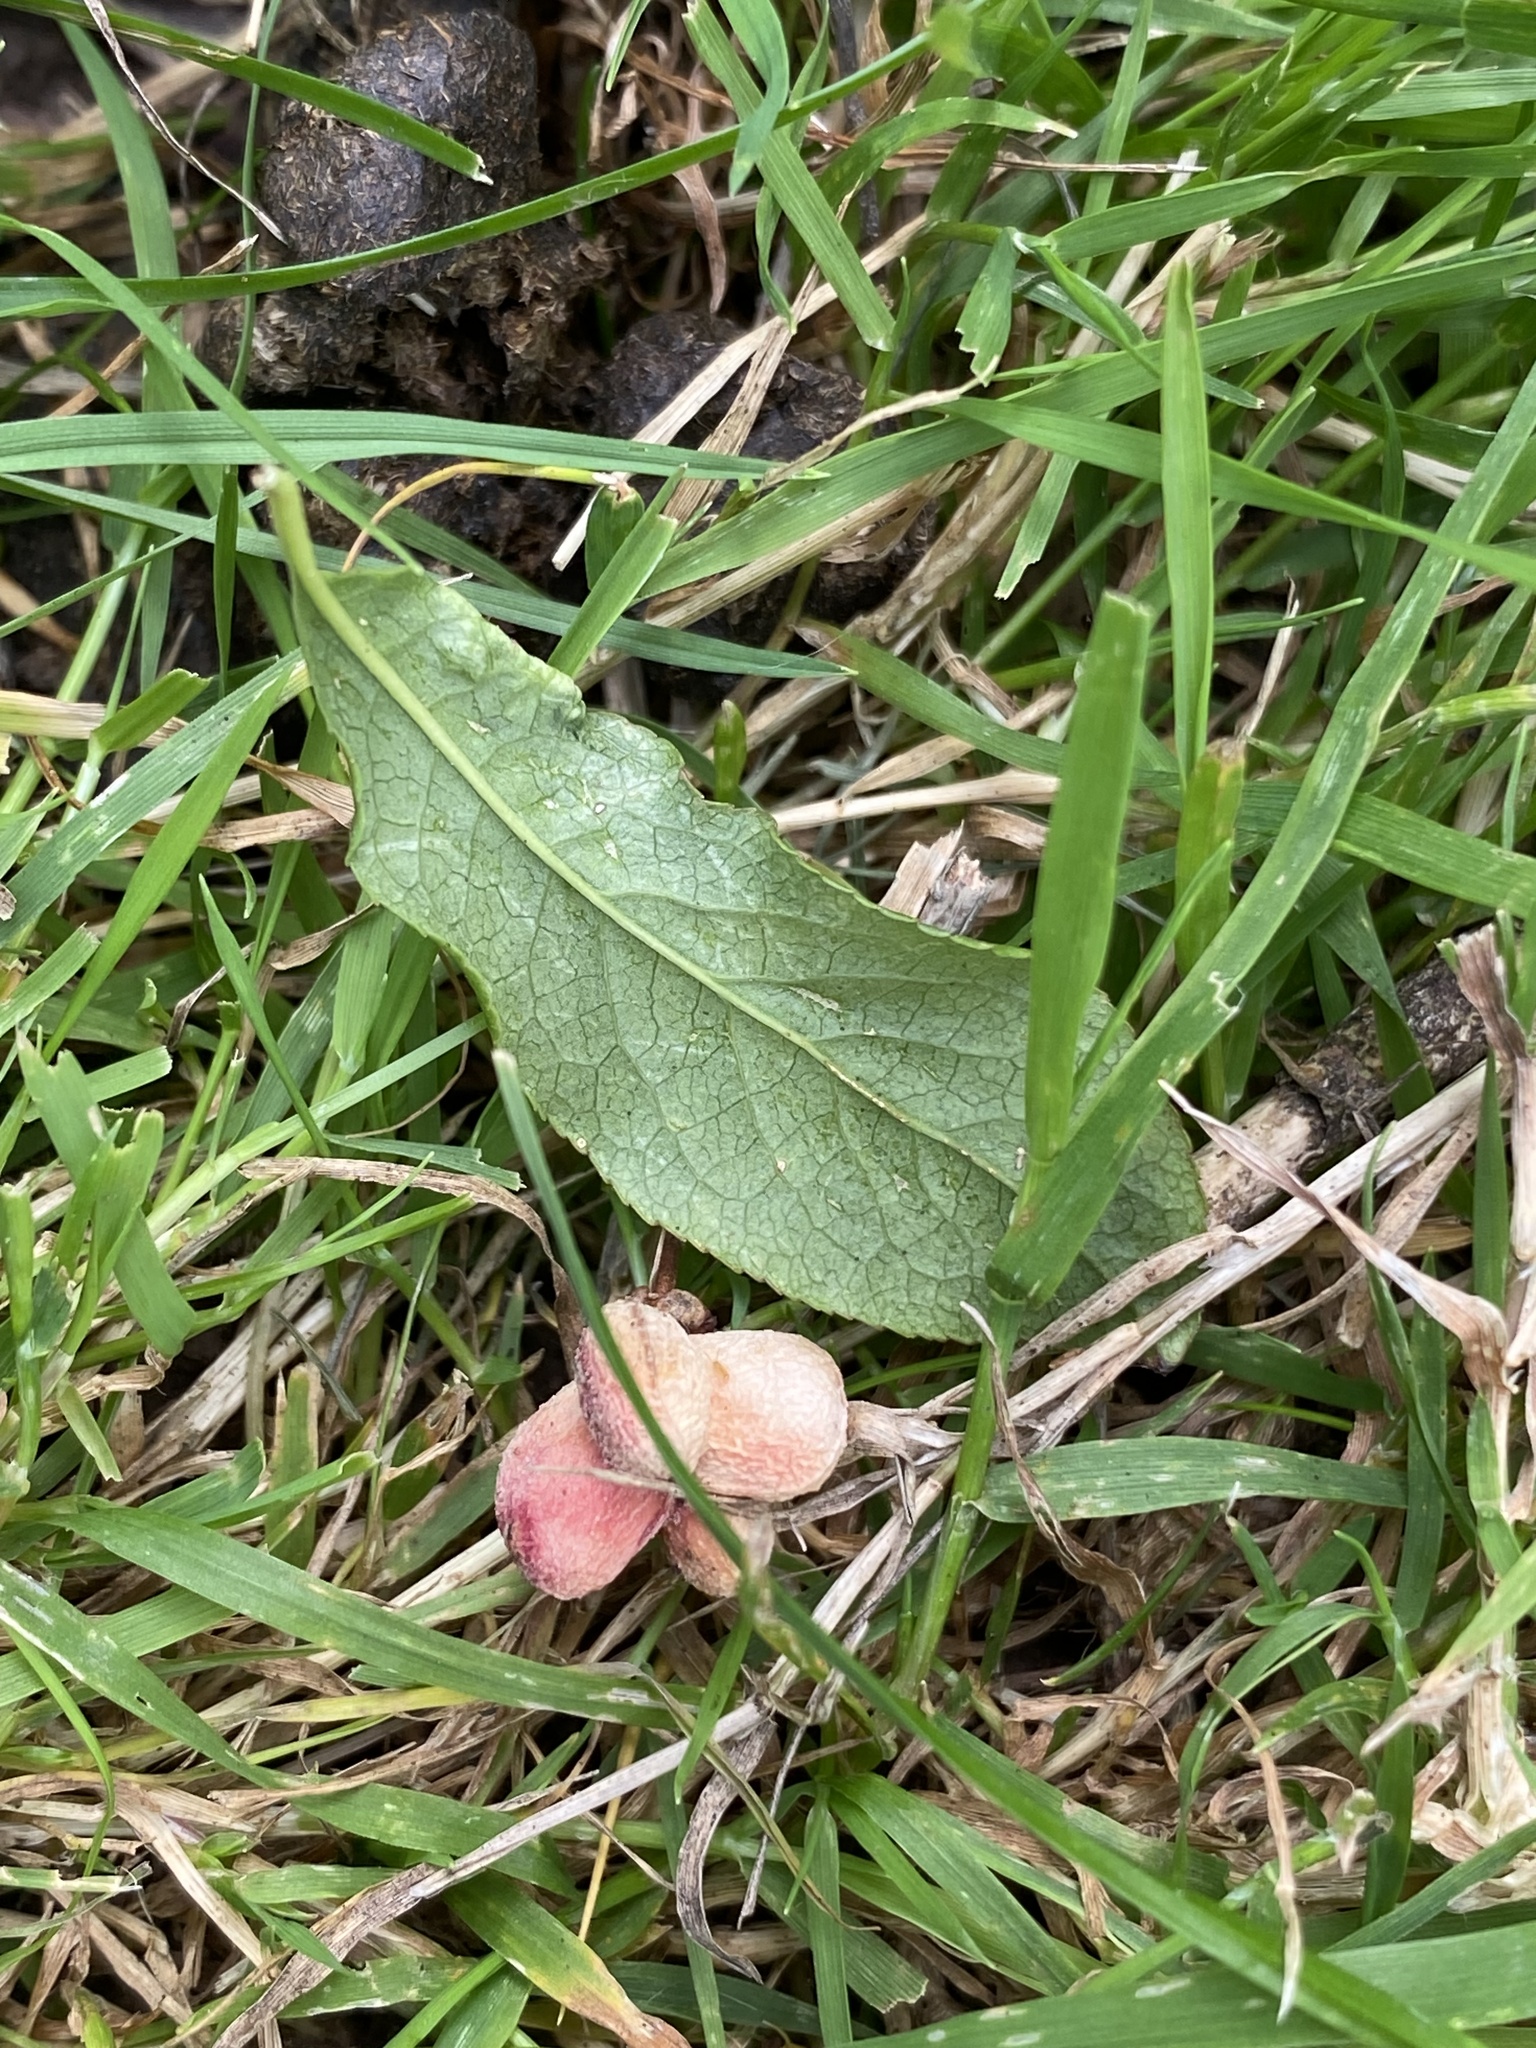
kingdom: Plantae
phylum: Tracheophyta
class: Magnoliopsida
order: Celastrales
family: Celastraceae
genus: Euonymus
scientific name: Euonymus europaeus
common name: Spindle
